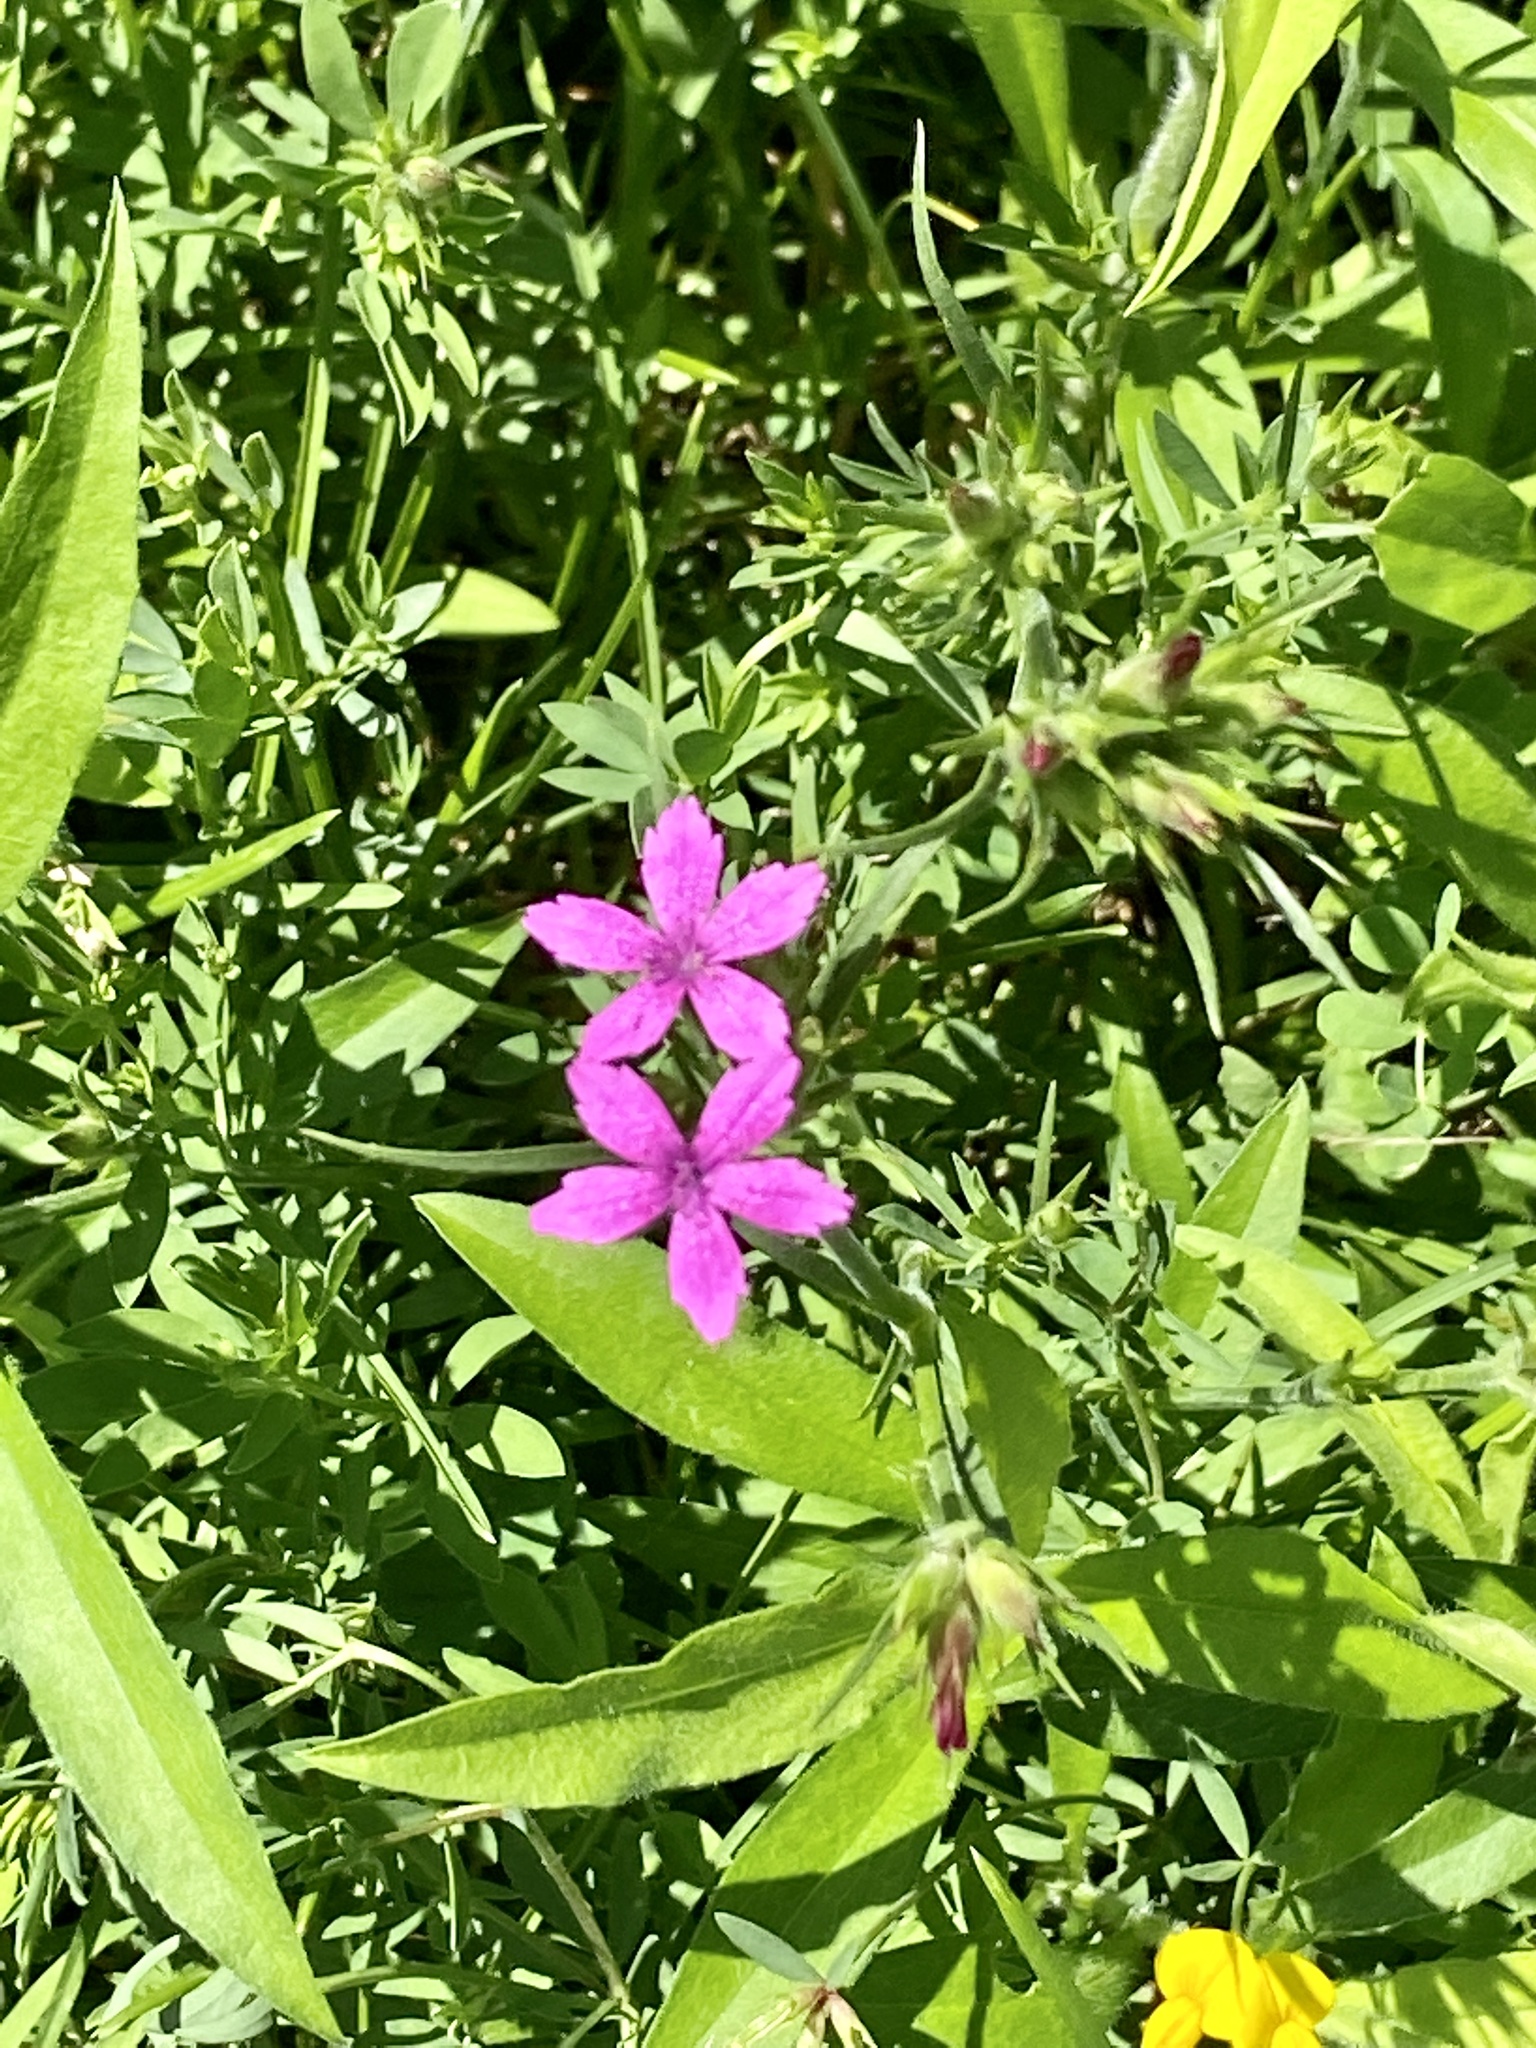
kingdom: Plantae
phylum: Tracheophyta
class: Magnoliopsida
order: Caryophyllales
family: Caryophyllaceae
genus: Dianthus
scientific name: Dianthus armeria
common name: Deptford pink
